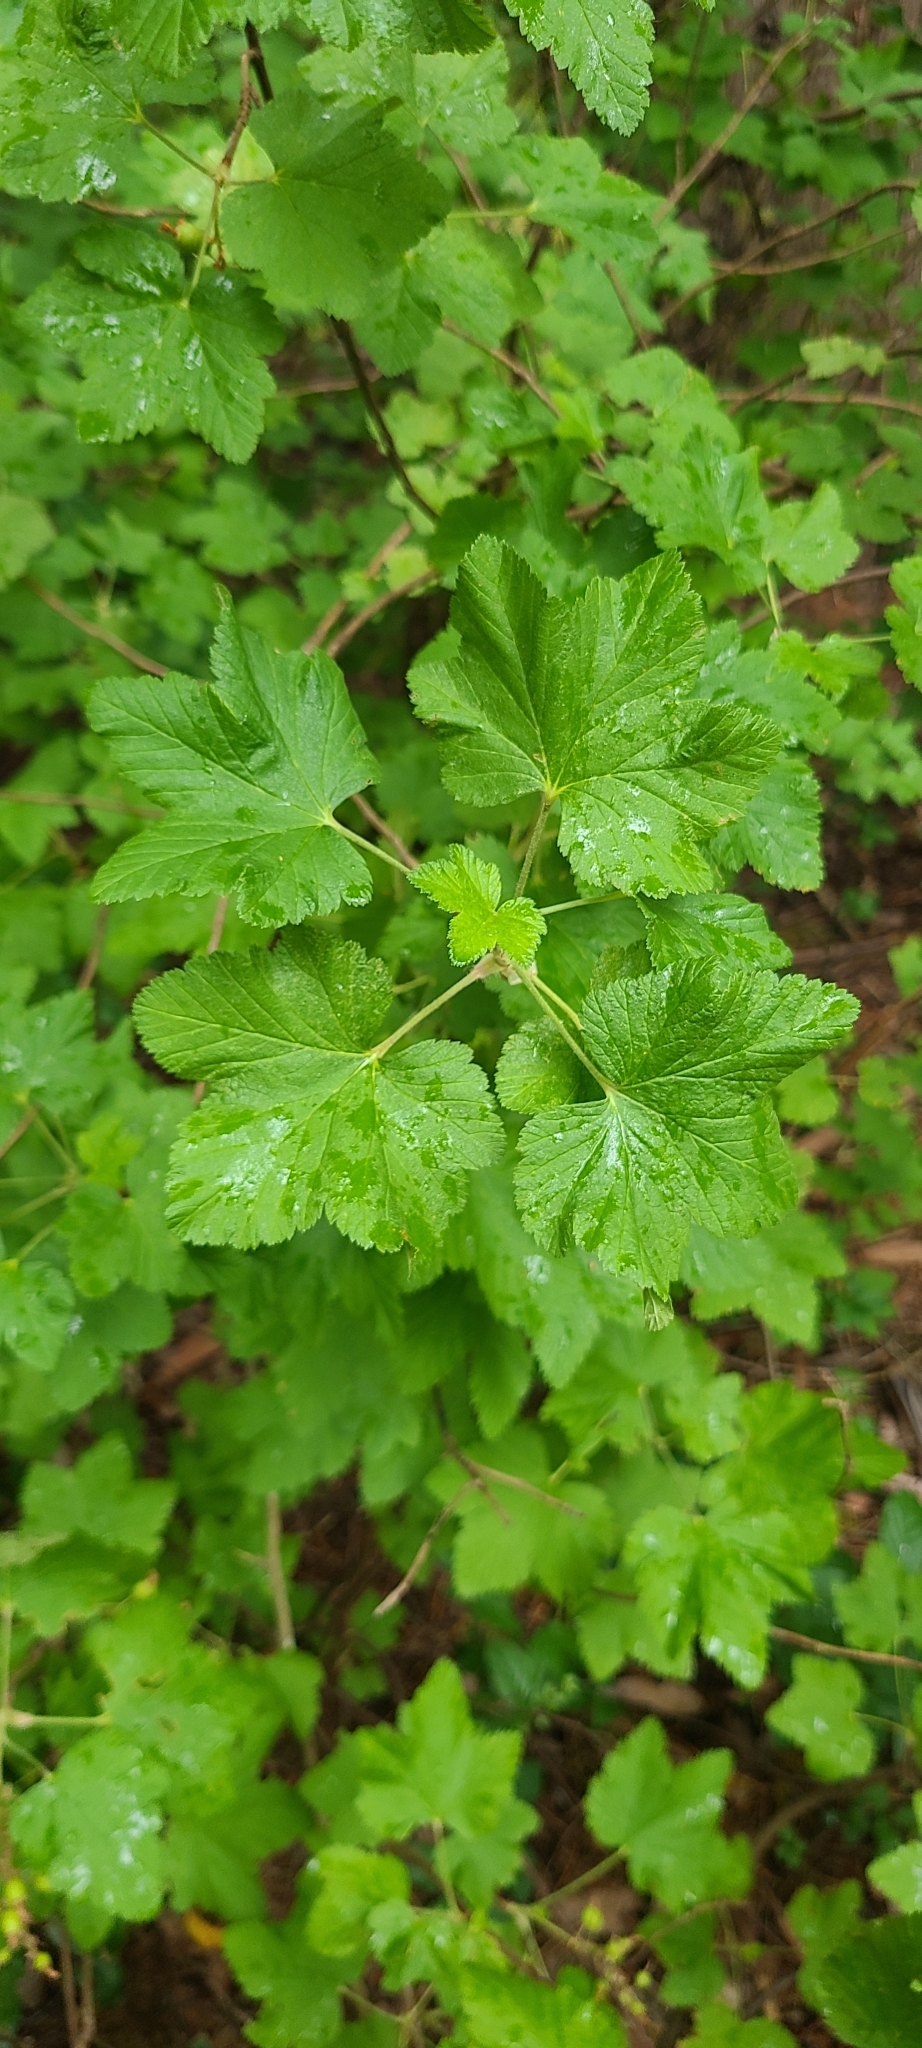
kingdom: Plantae
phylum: Tracheophyta
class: Magnoliopsida
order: Saxifragales
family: Grossulariaceae
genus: Ribes
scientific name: Ribes sanguineum
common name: Flowering currant
